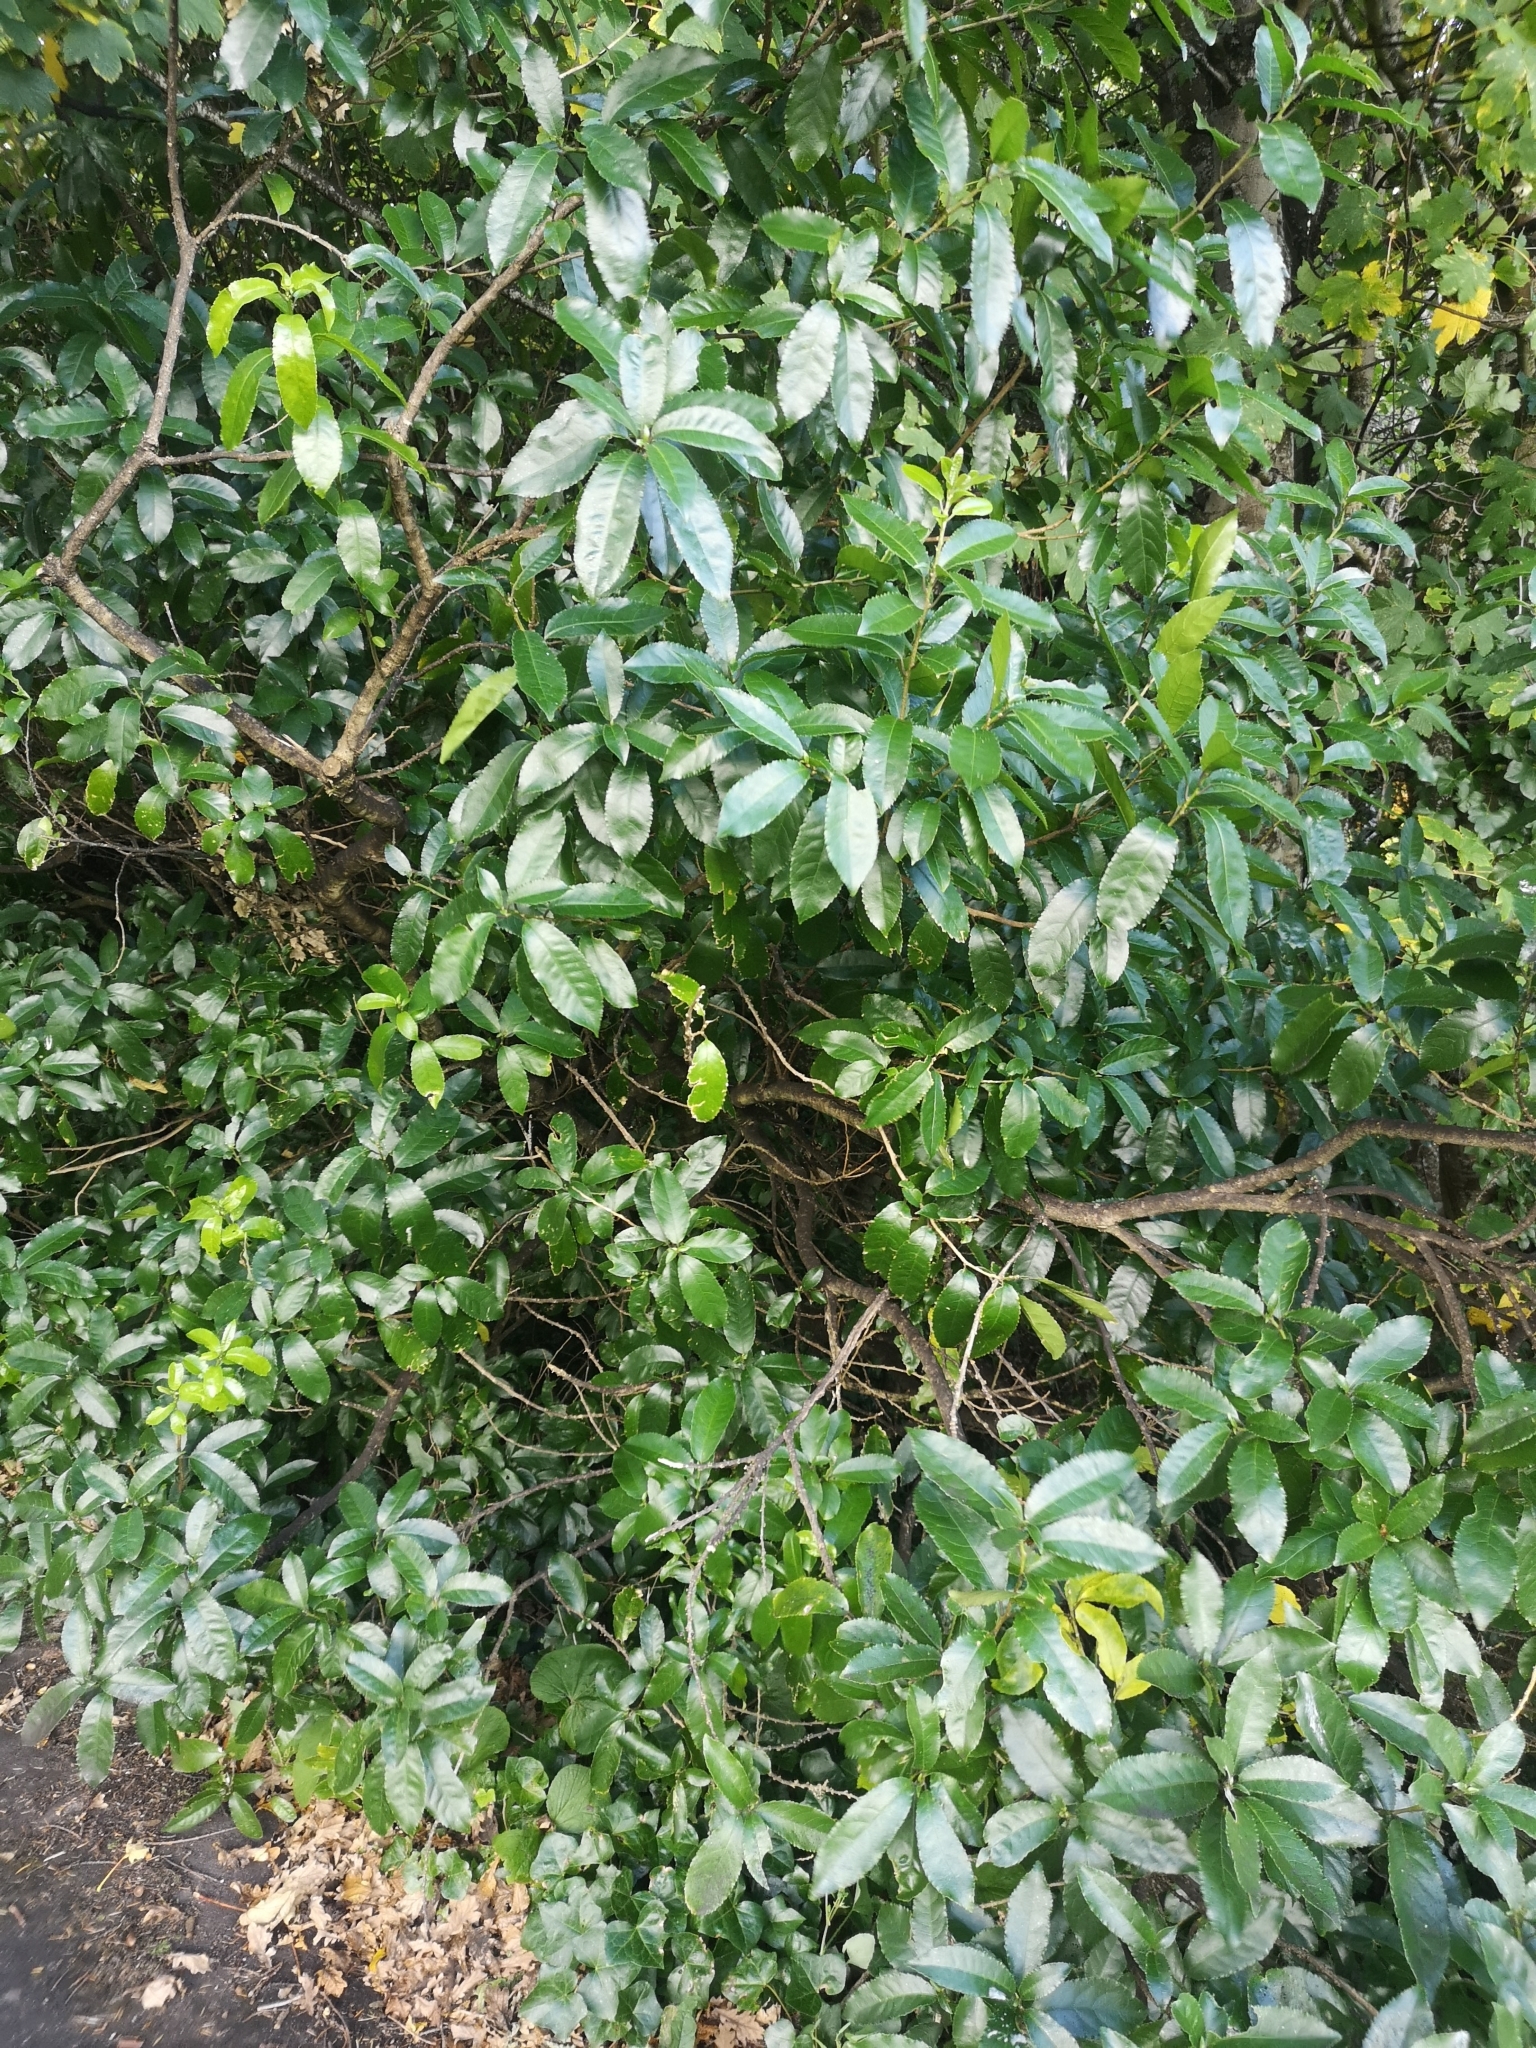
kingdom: Plantae
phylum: Tracheophyta
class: Magnoliopsida
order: Malpighiales
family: Violaceae
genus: Melicytus
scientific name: Melicytus ramiflorus
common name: Mahoe
